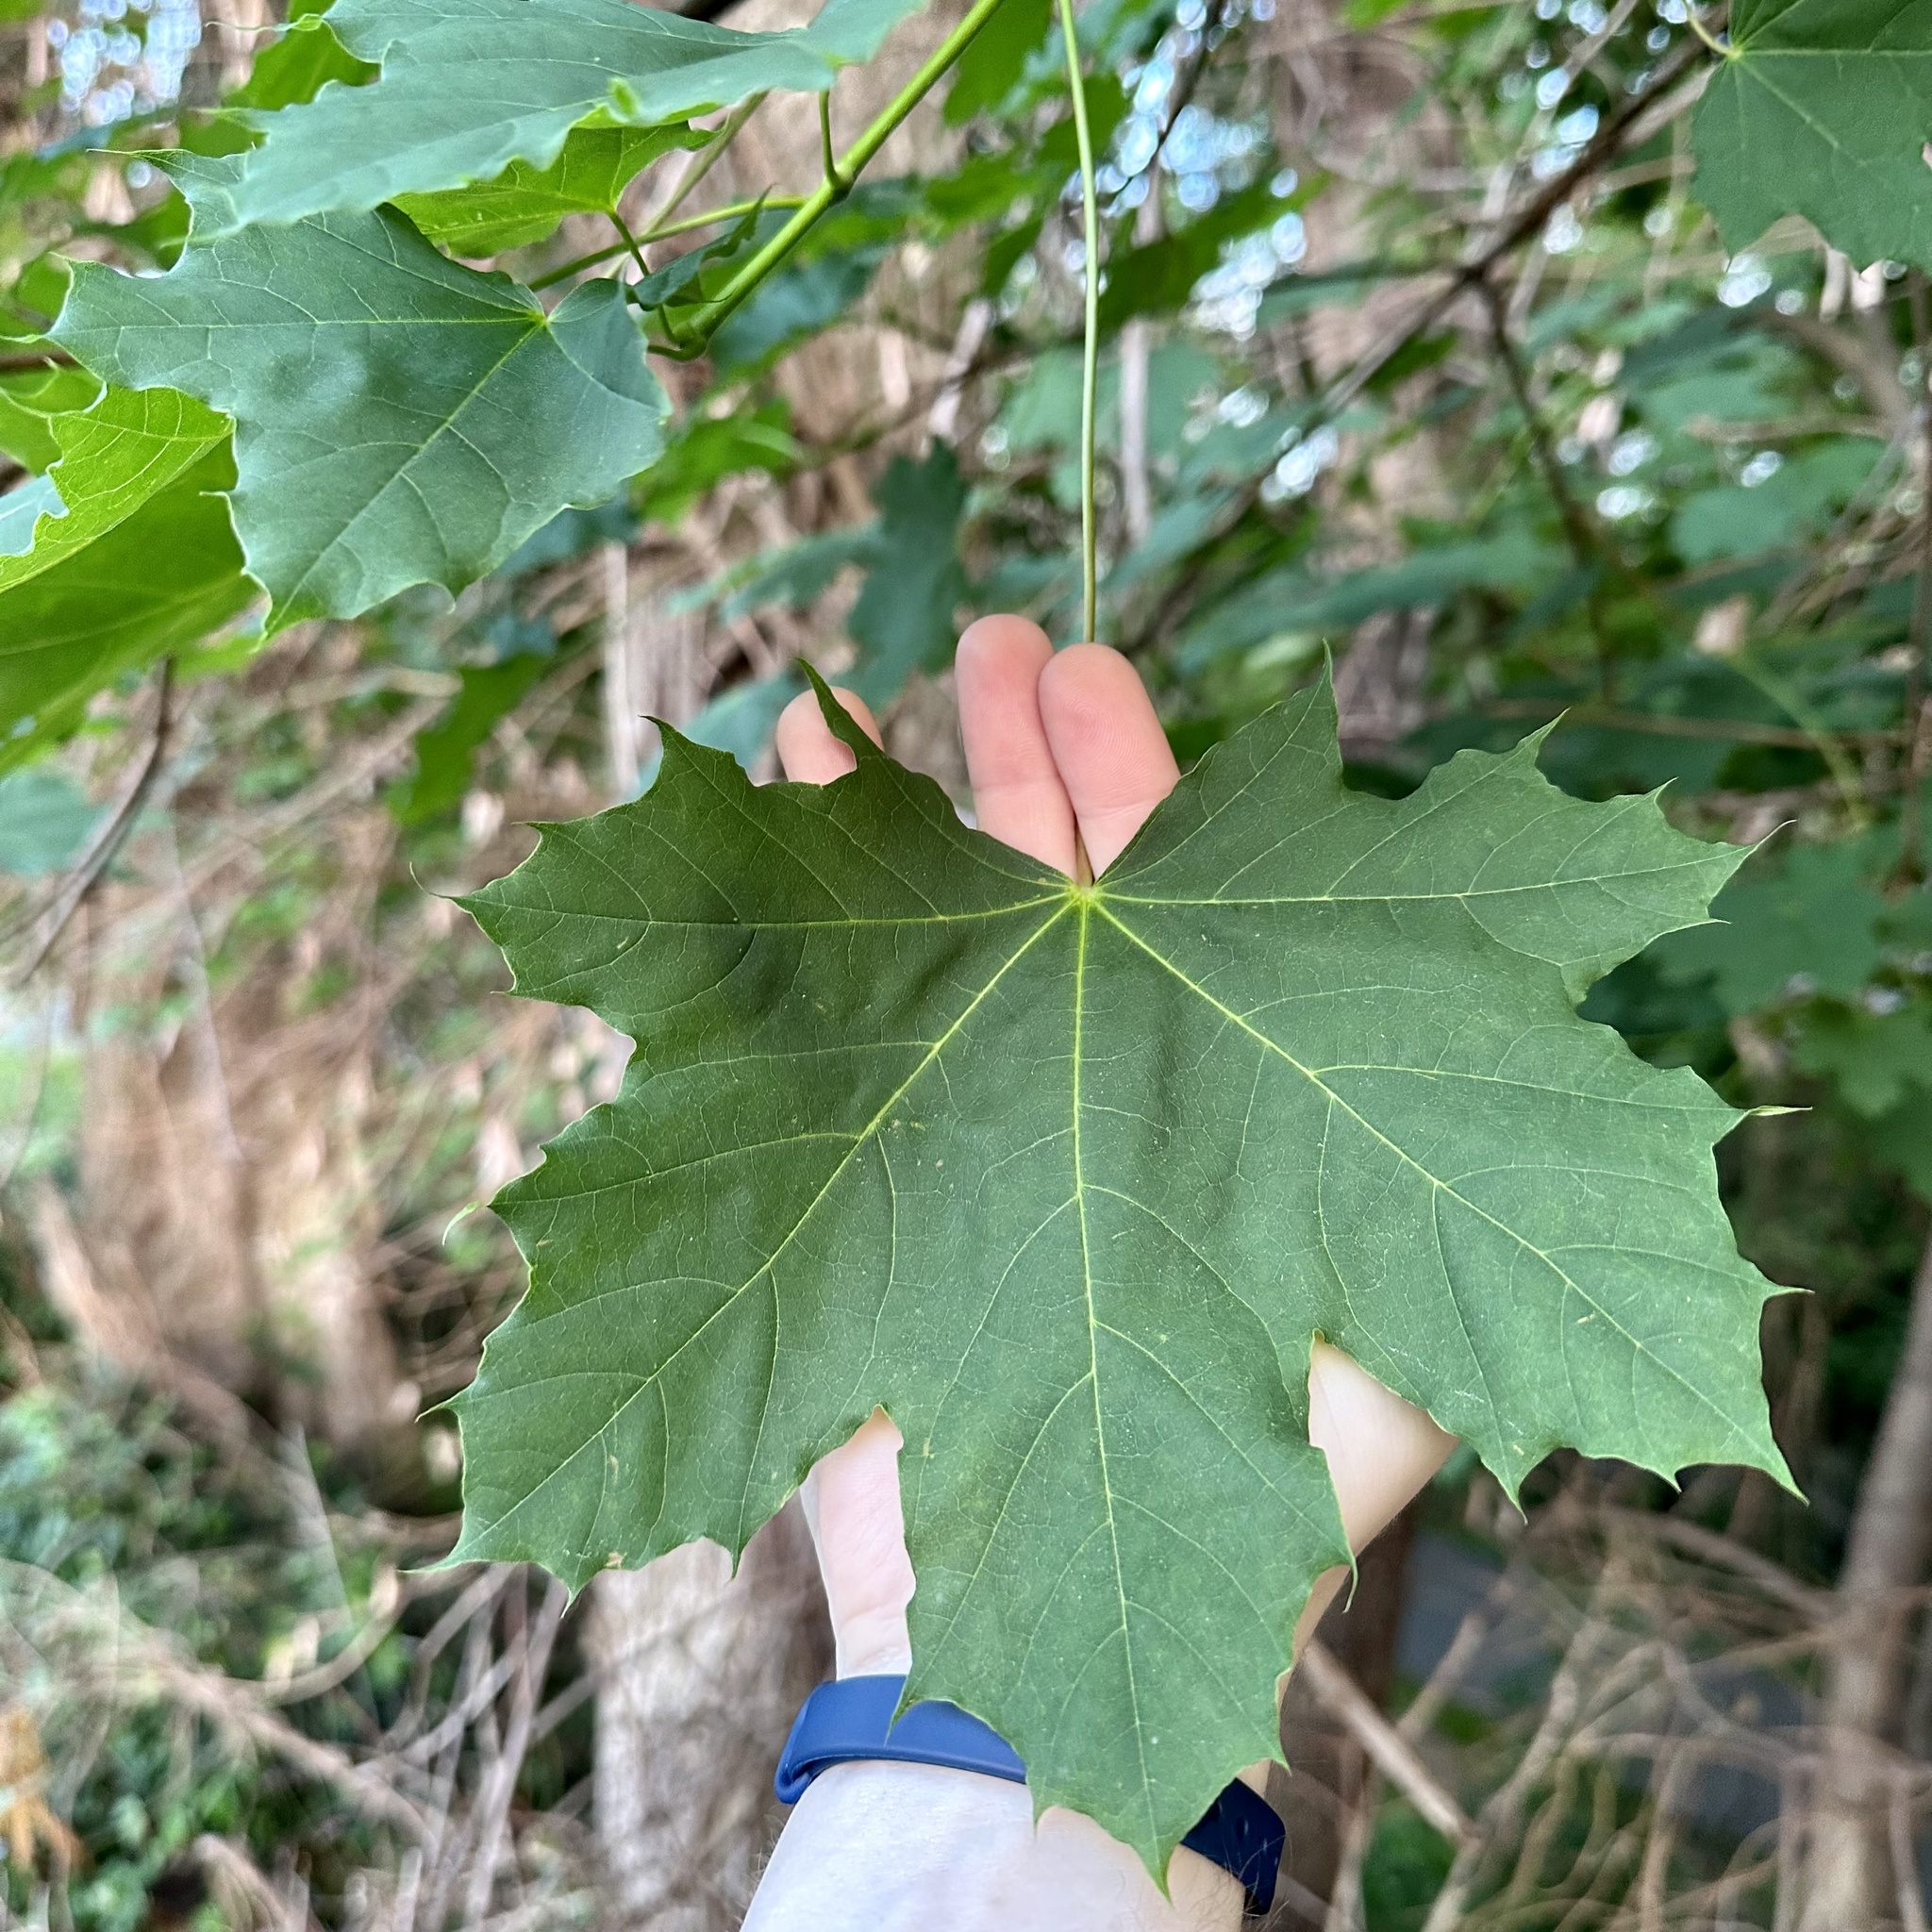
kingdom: Plantae
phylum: Tracheophyta
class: Magnoliopsida
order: Sapindales
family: Sapindaceae
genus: Acer
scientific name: Acer platanoides
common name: Norway maple
